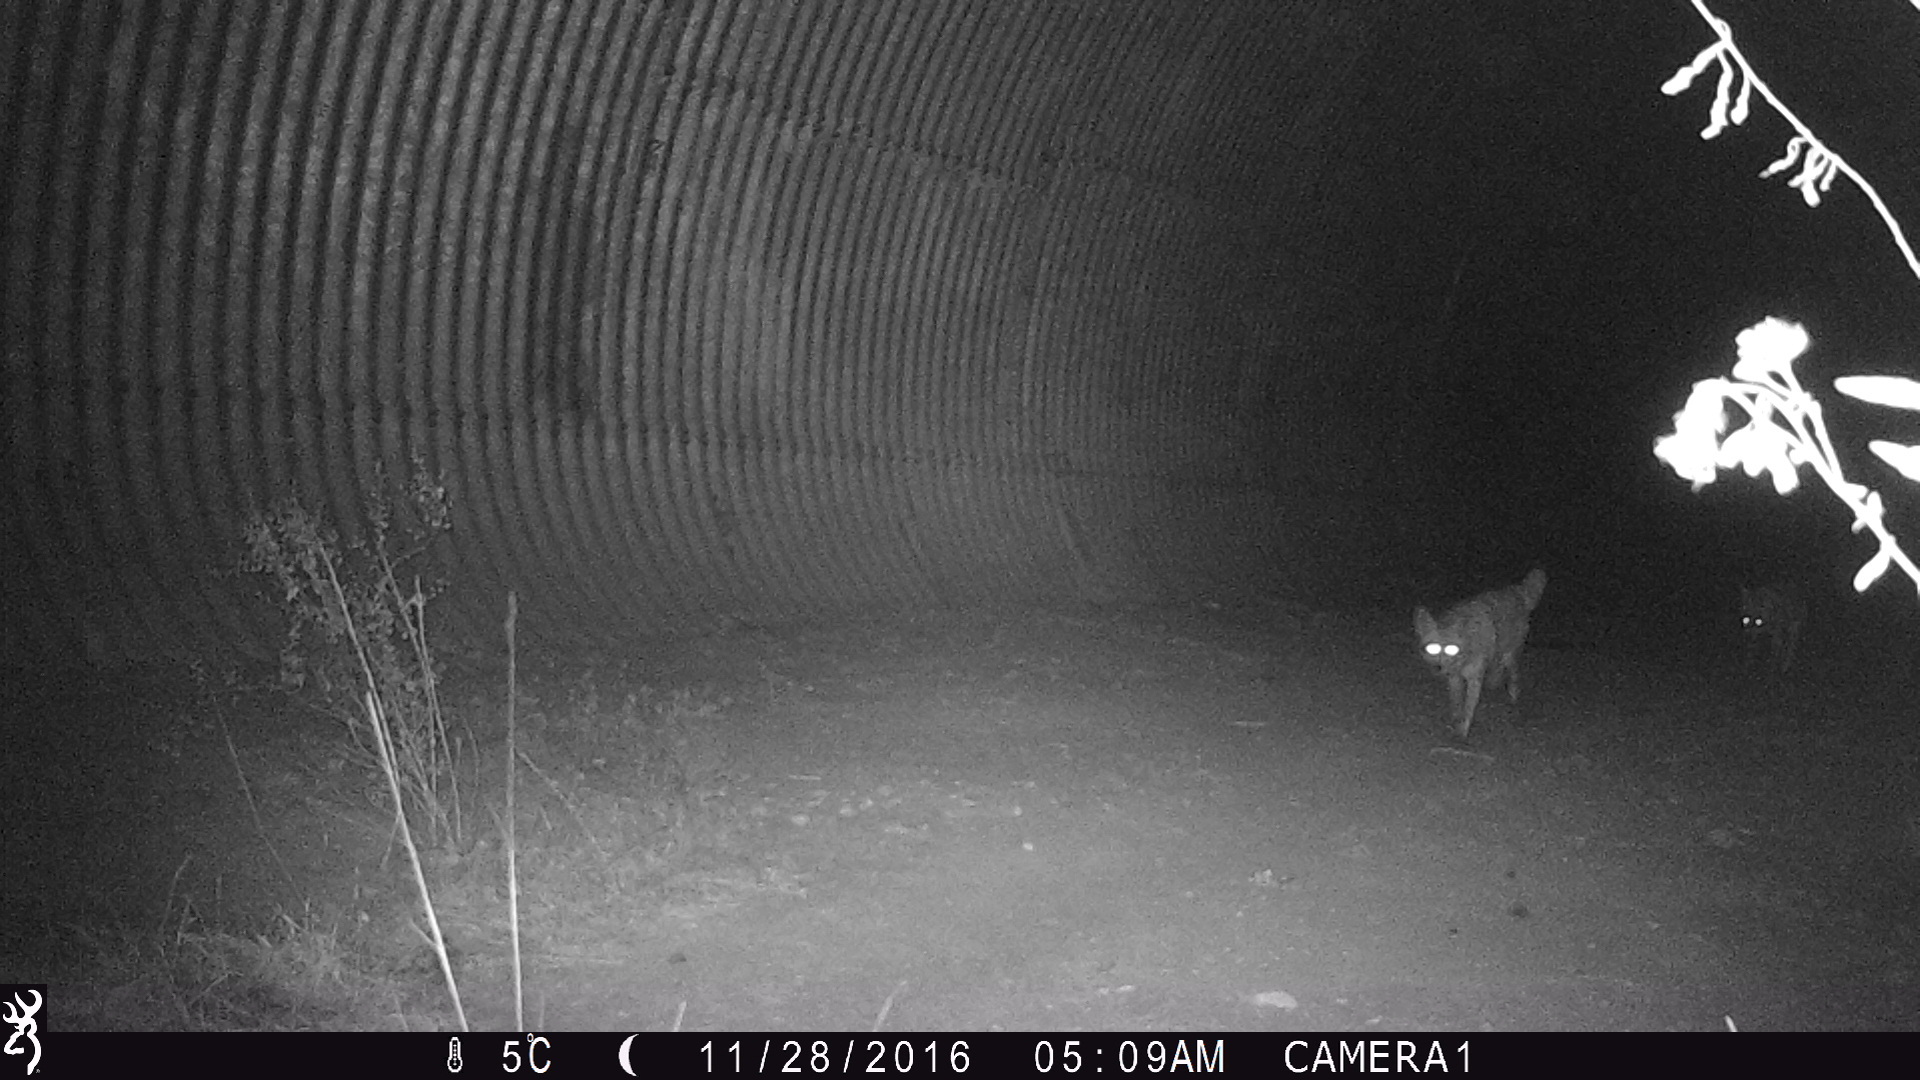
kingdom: Animalia
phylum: Chordata
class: Mammalia
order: Carnivora
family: Canidae
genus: Canis
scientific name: Canis latrans
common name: Coyote
